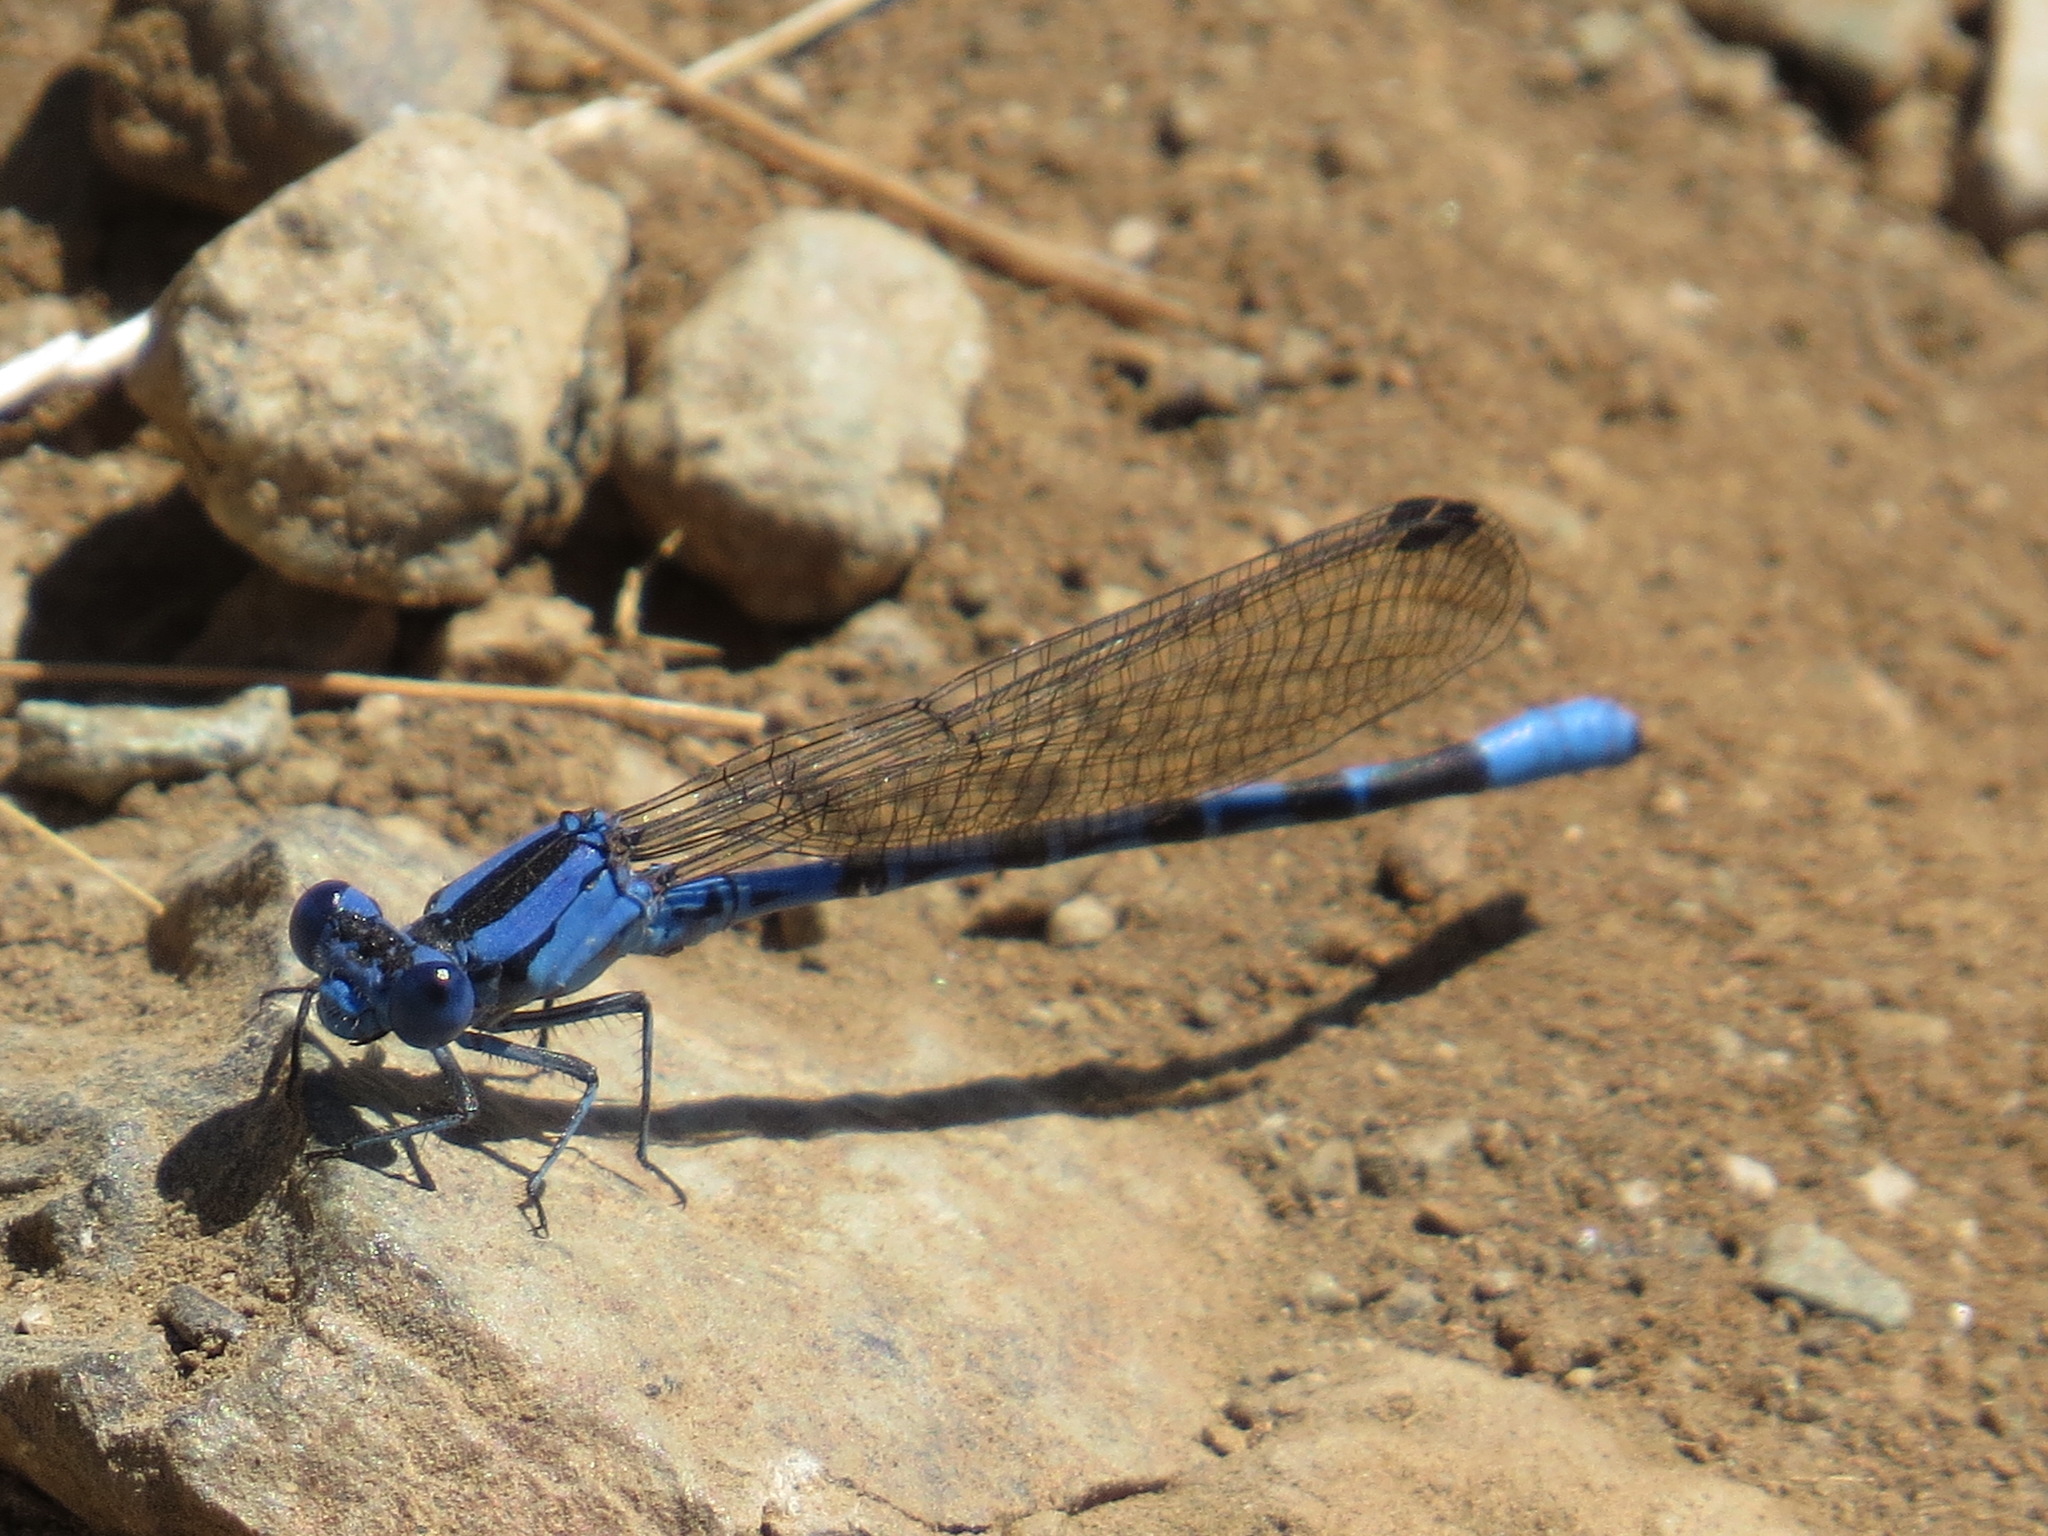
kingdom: Animalia
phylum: Arthropoda
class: Insecta
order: Odonata
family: Coenagrionidae
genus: Argia
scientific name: Argia vivida
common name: Vivid dancer
